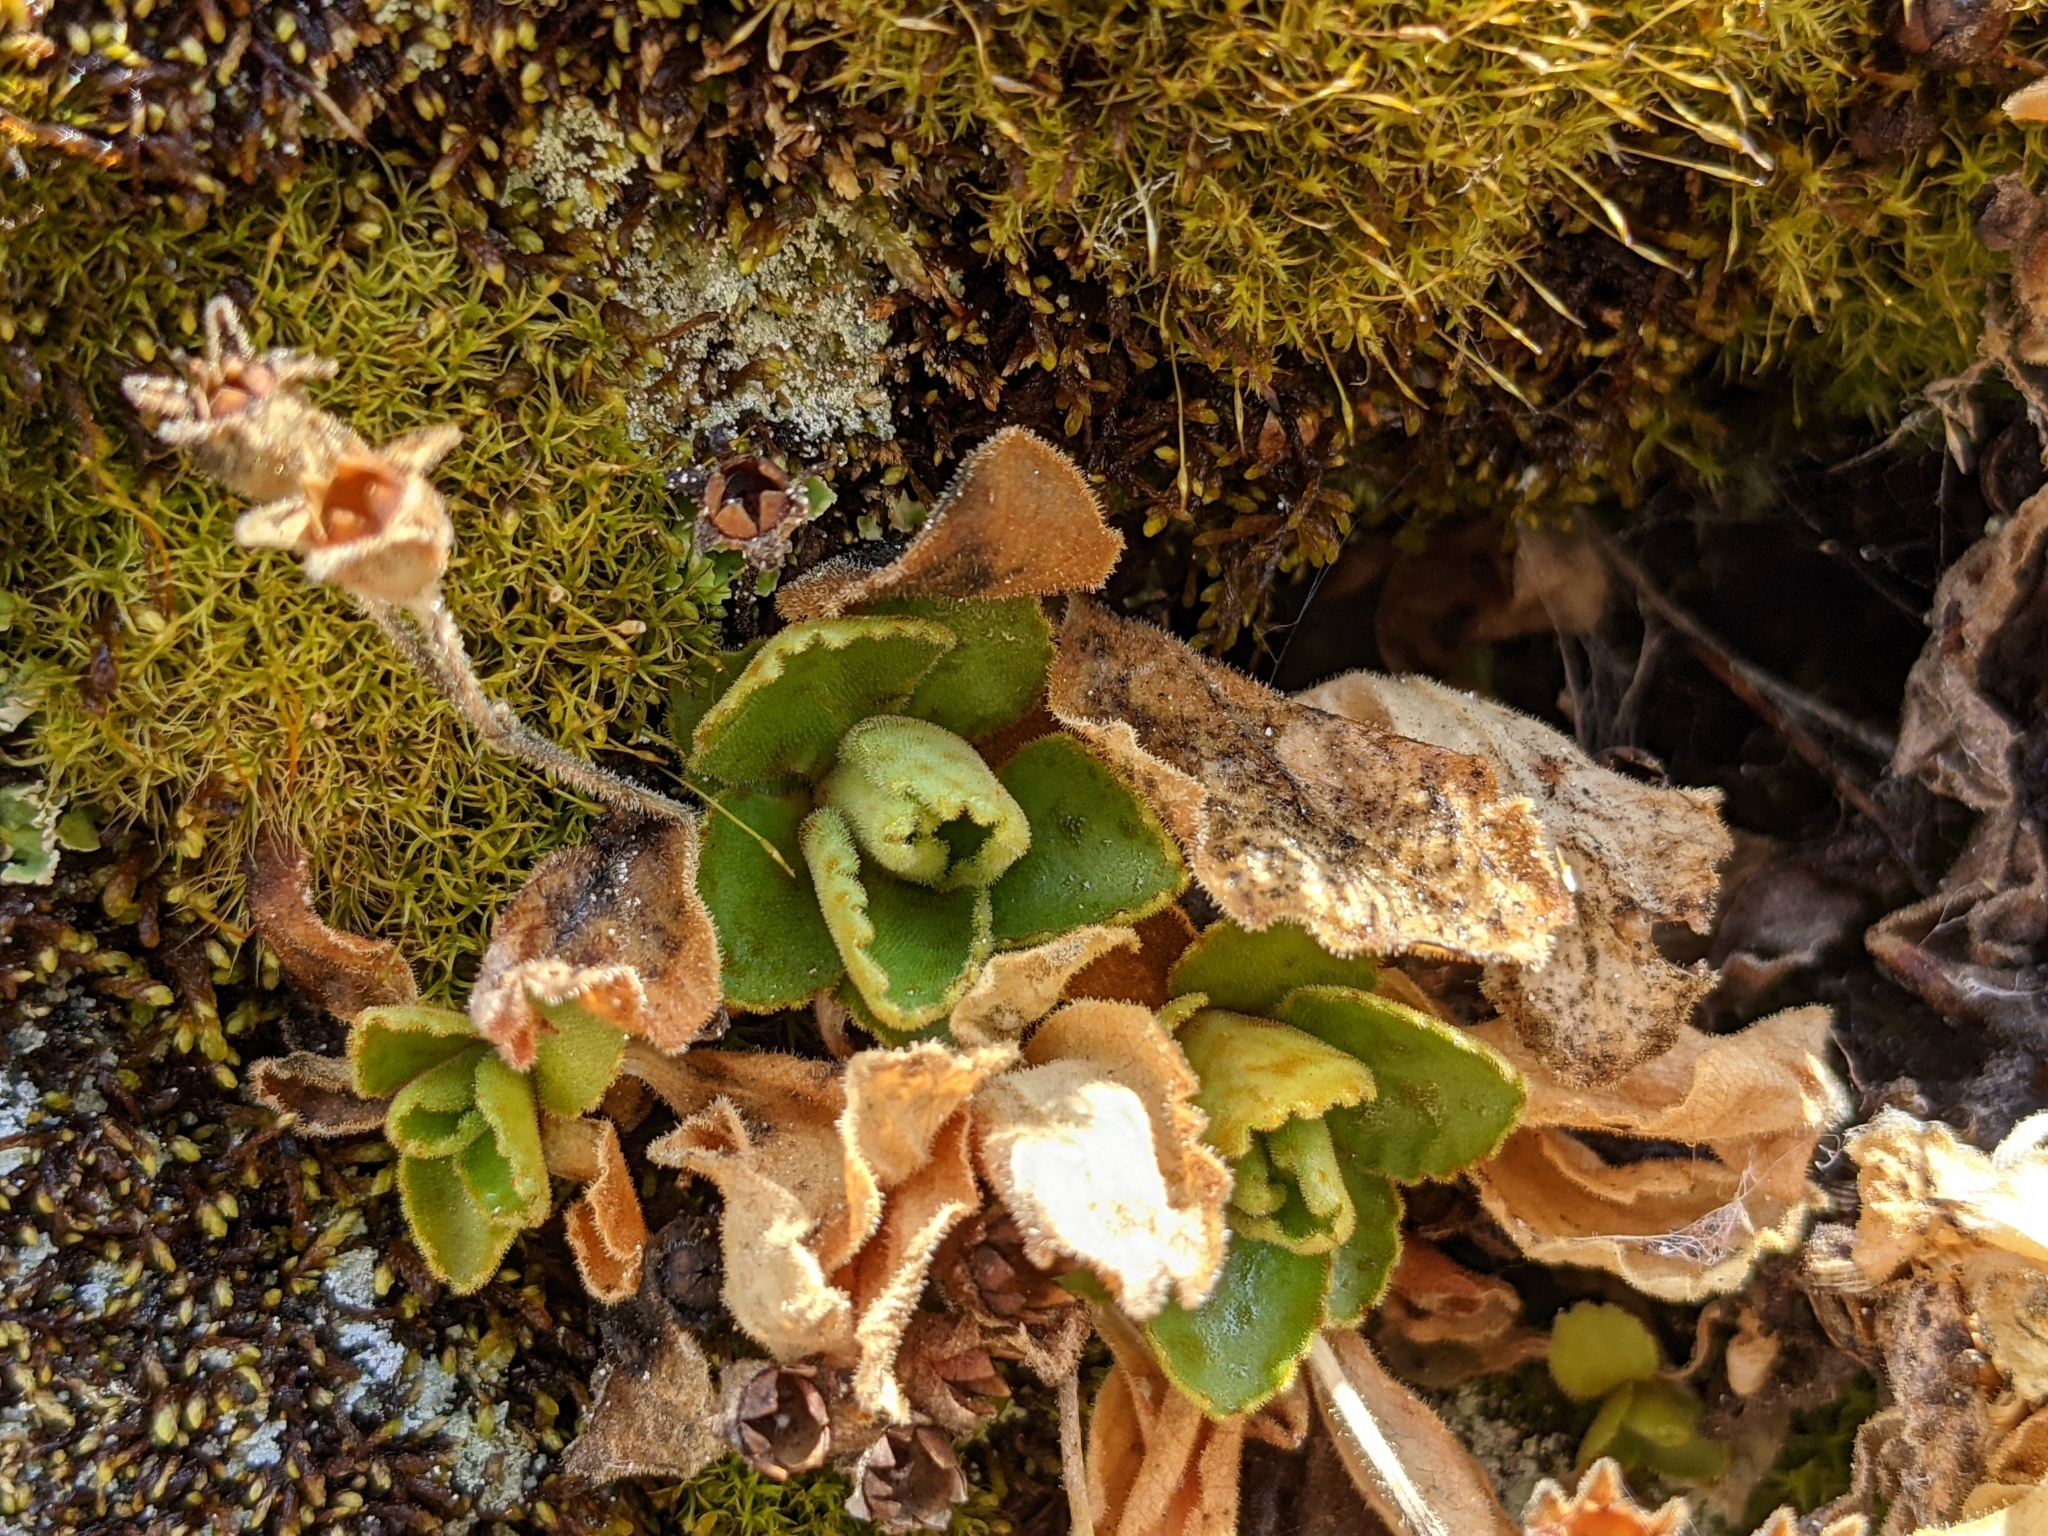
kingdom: Plantae
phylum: Tracheophyta
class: Magnoliopsida
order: Ericales
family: Primulaceae
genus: Primula
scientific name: Primula hirsuta
